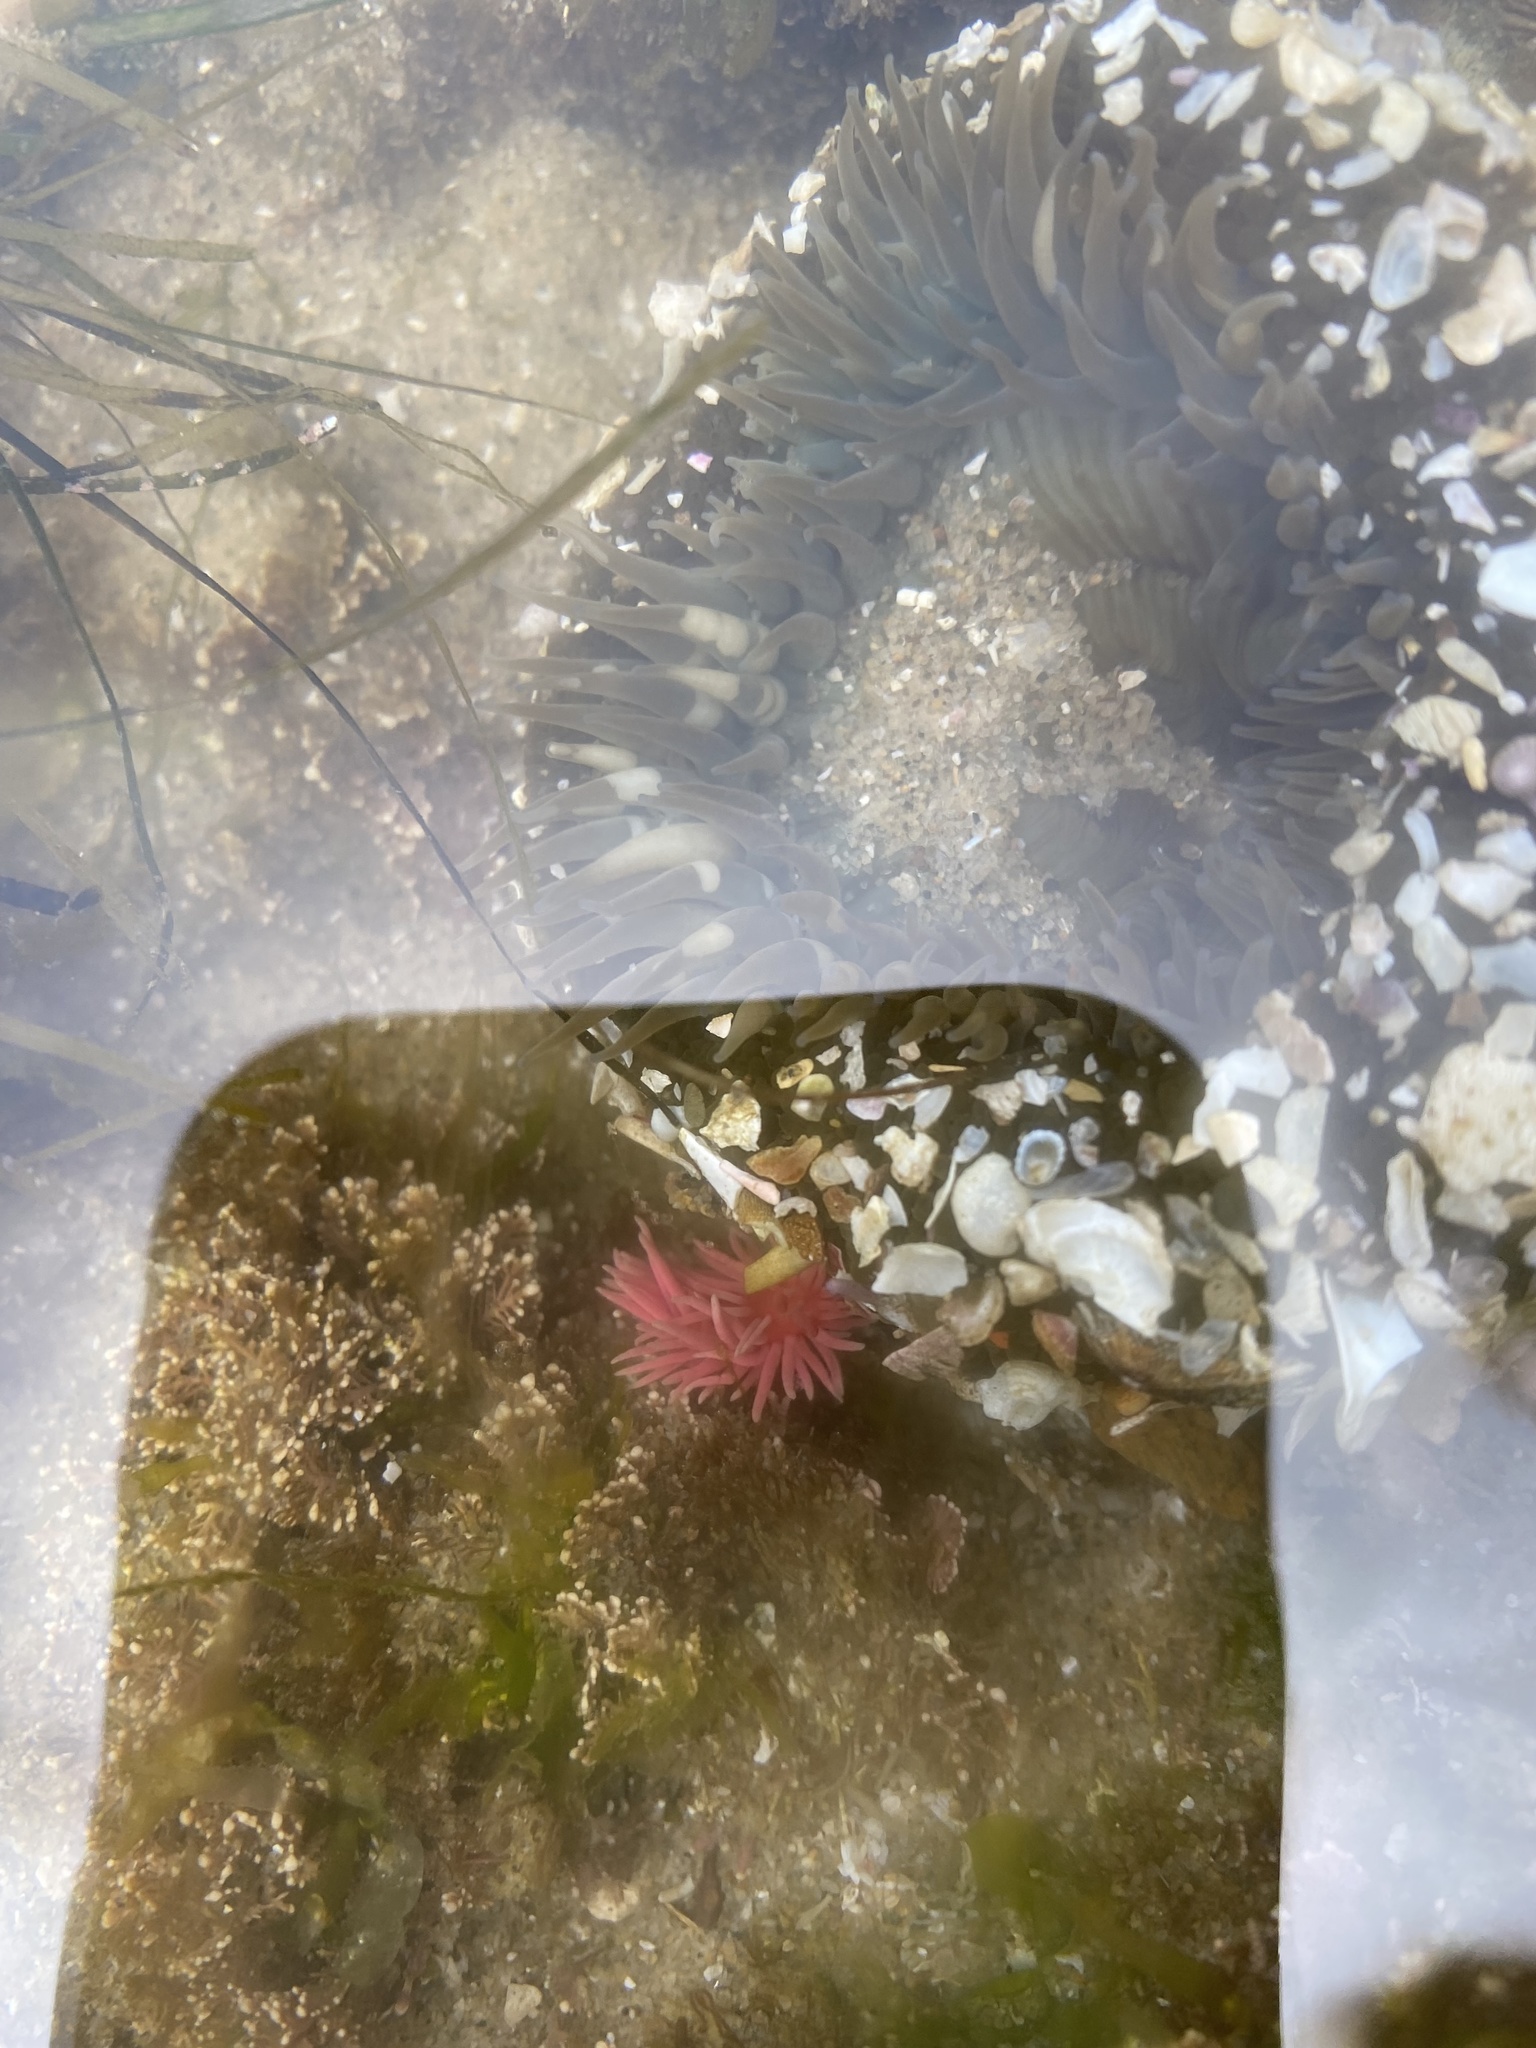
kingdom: Animalia
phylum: Mollusca
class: Gastropoda
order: Nudibranchia
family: Goniodorididae
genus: Okenia
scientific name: Okenia
